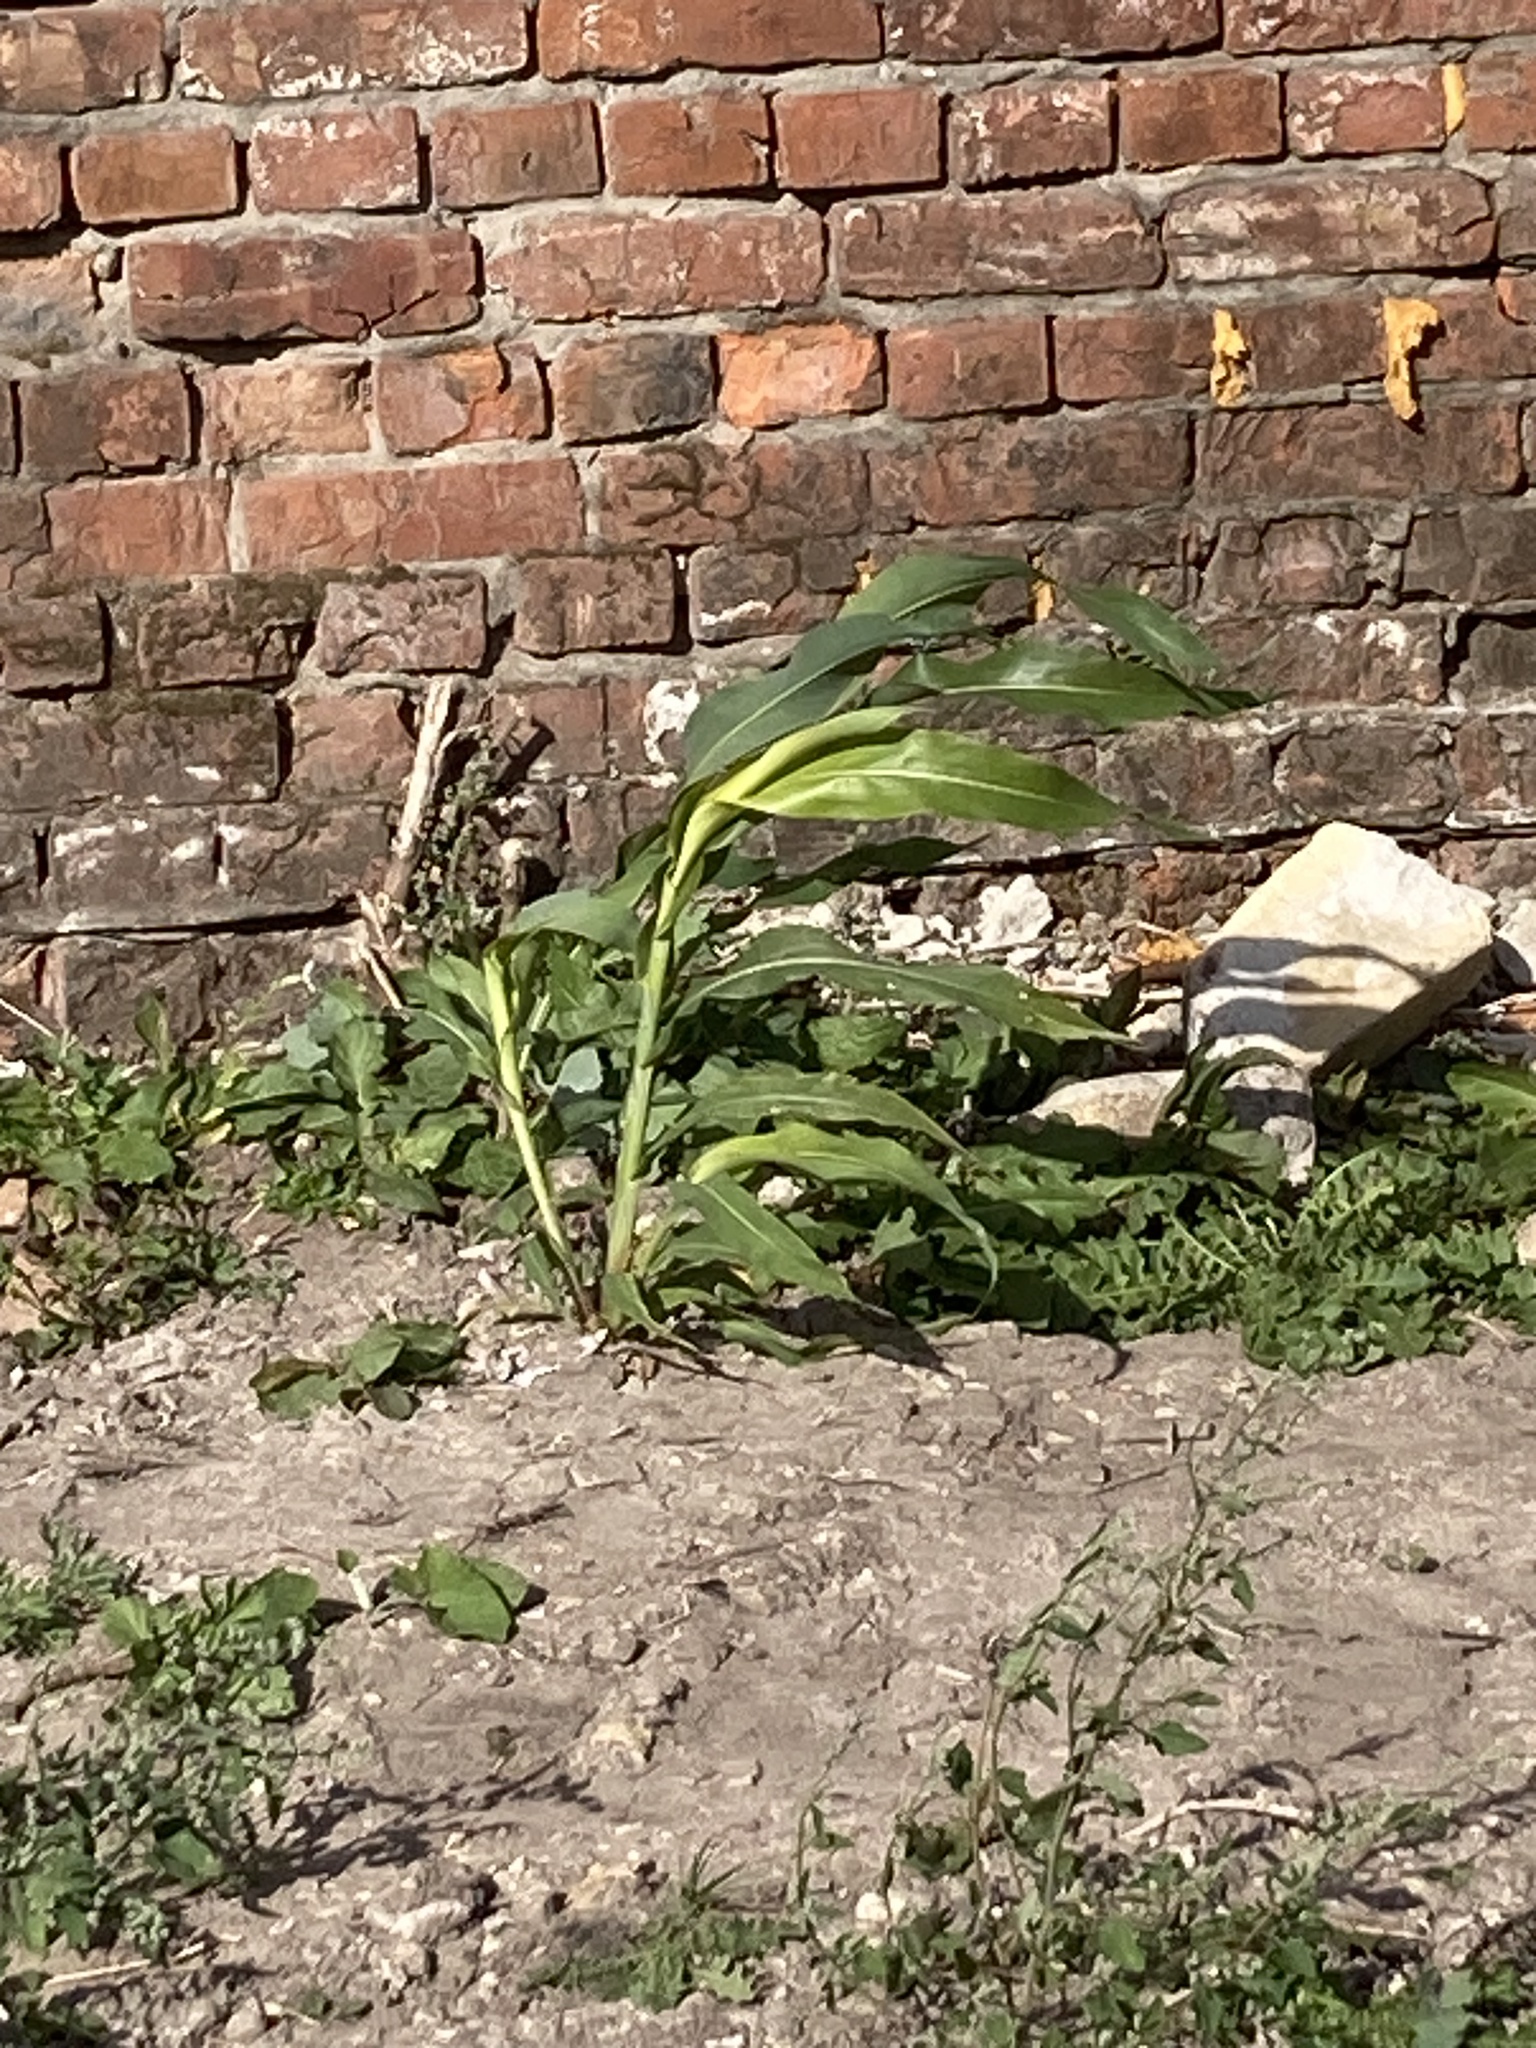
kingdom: Plantae
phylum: Tracheophyta
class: Liliopsida
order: Poales
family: Poaceae
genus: Zea
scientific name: Zea mays
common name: Maize
